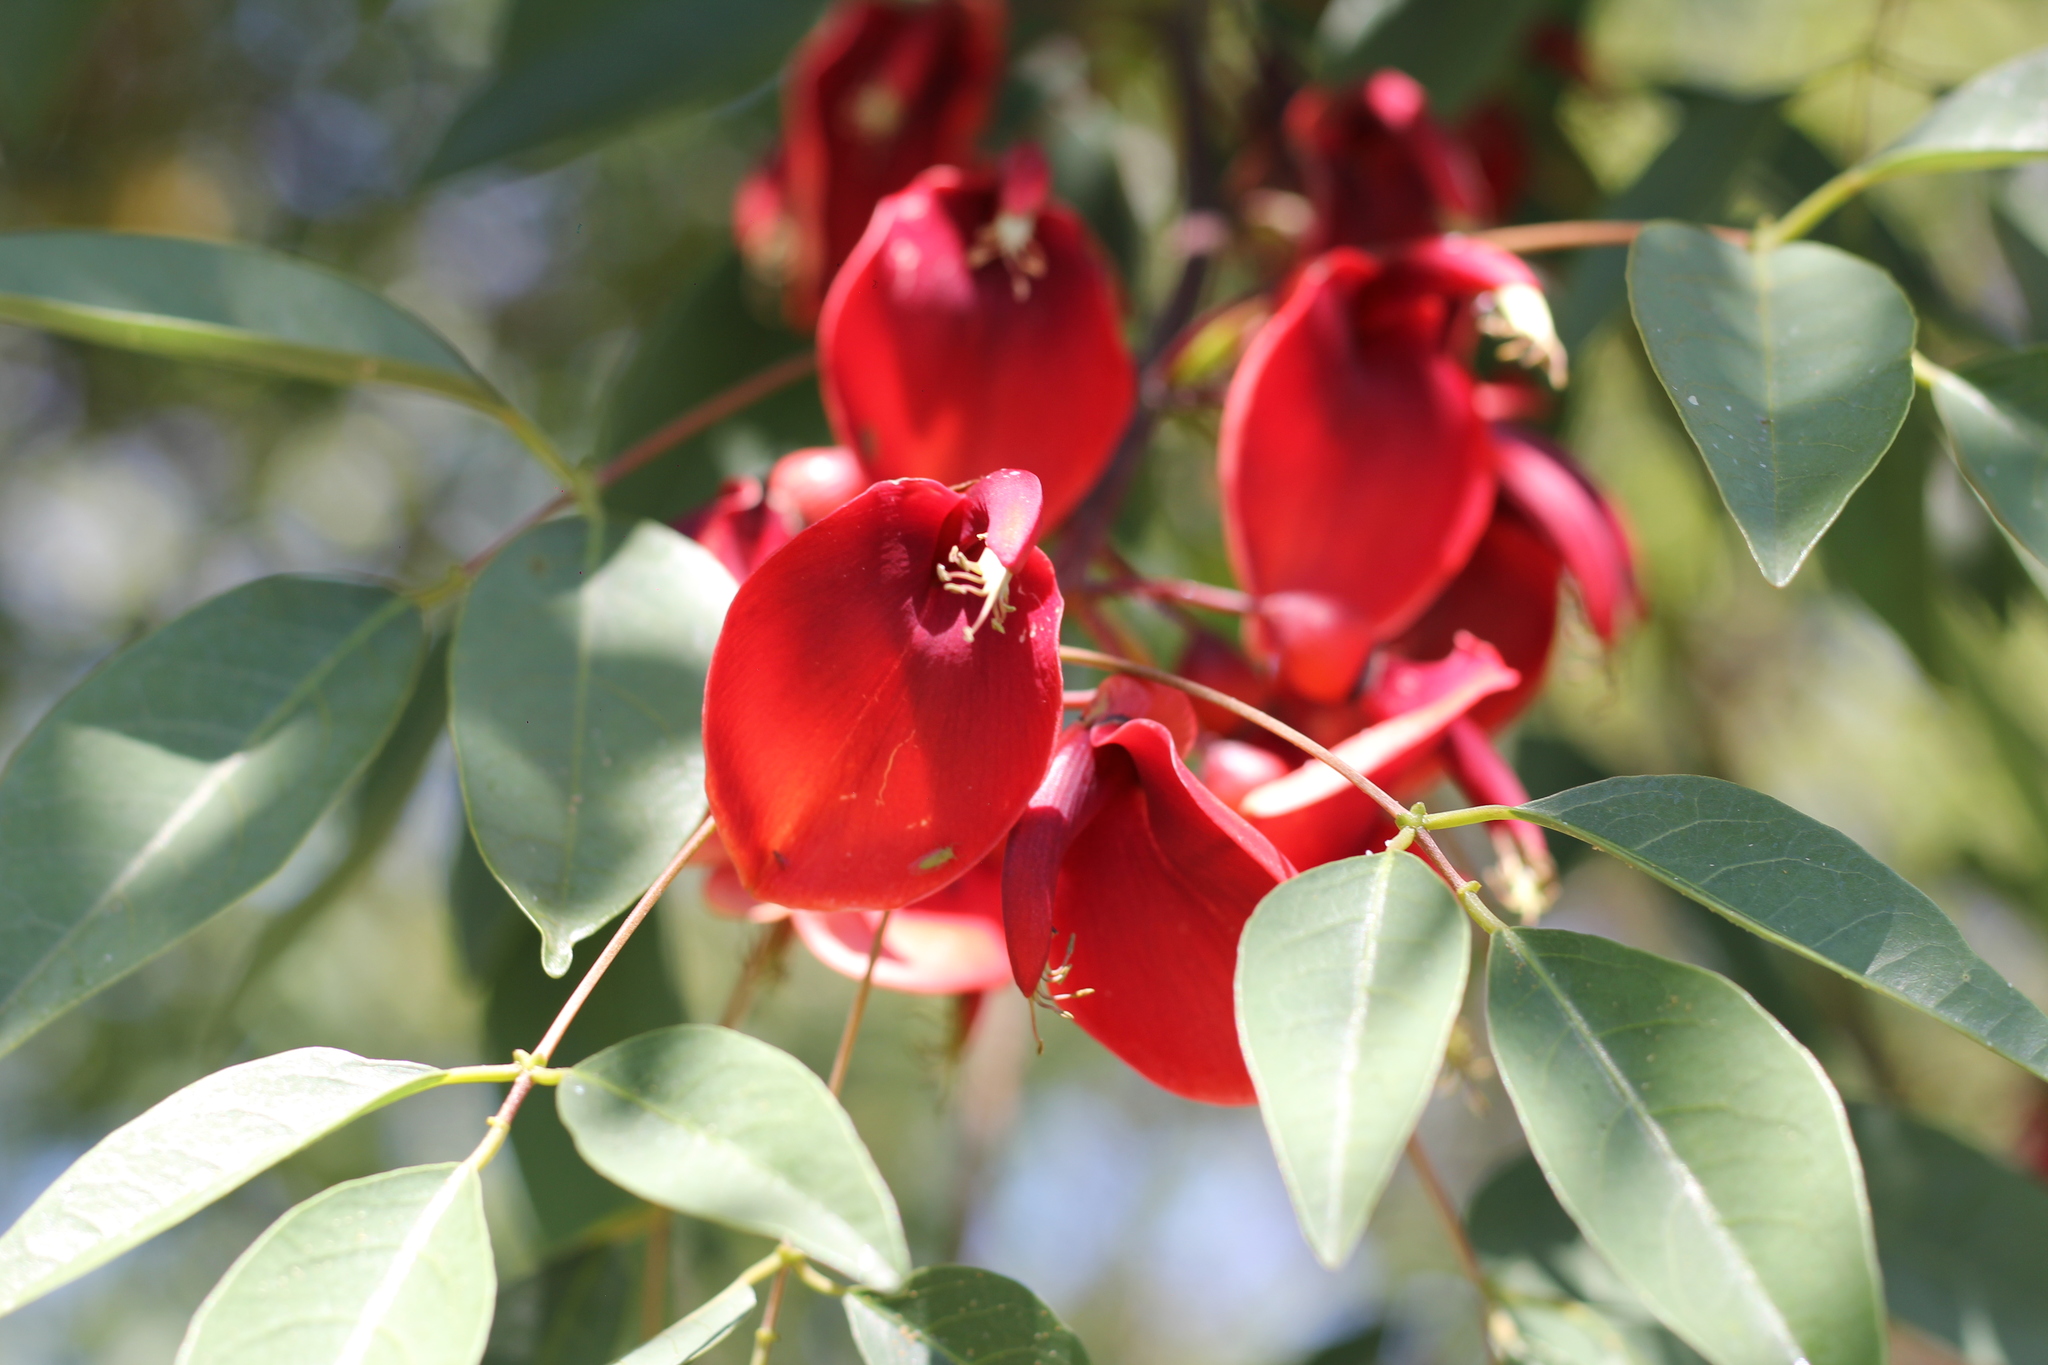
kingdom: Plantae
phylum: Tracheophyta
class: Magnoliopsida
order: Fabales
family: Fabaceae
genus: Erythrina
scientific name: Erythrina crista-galli
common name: Cockspur coral tree
